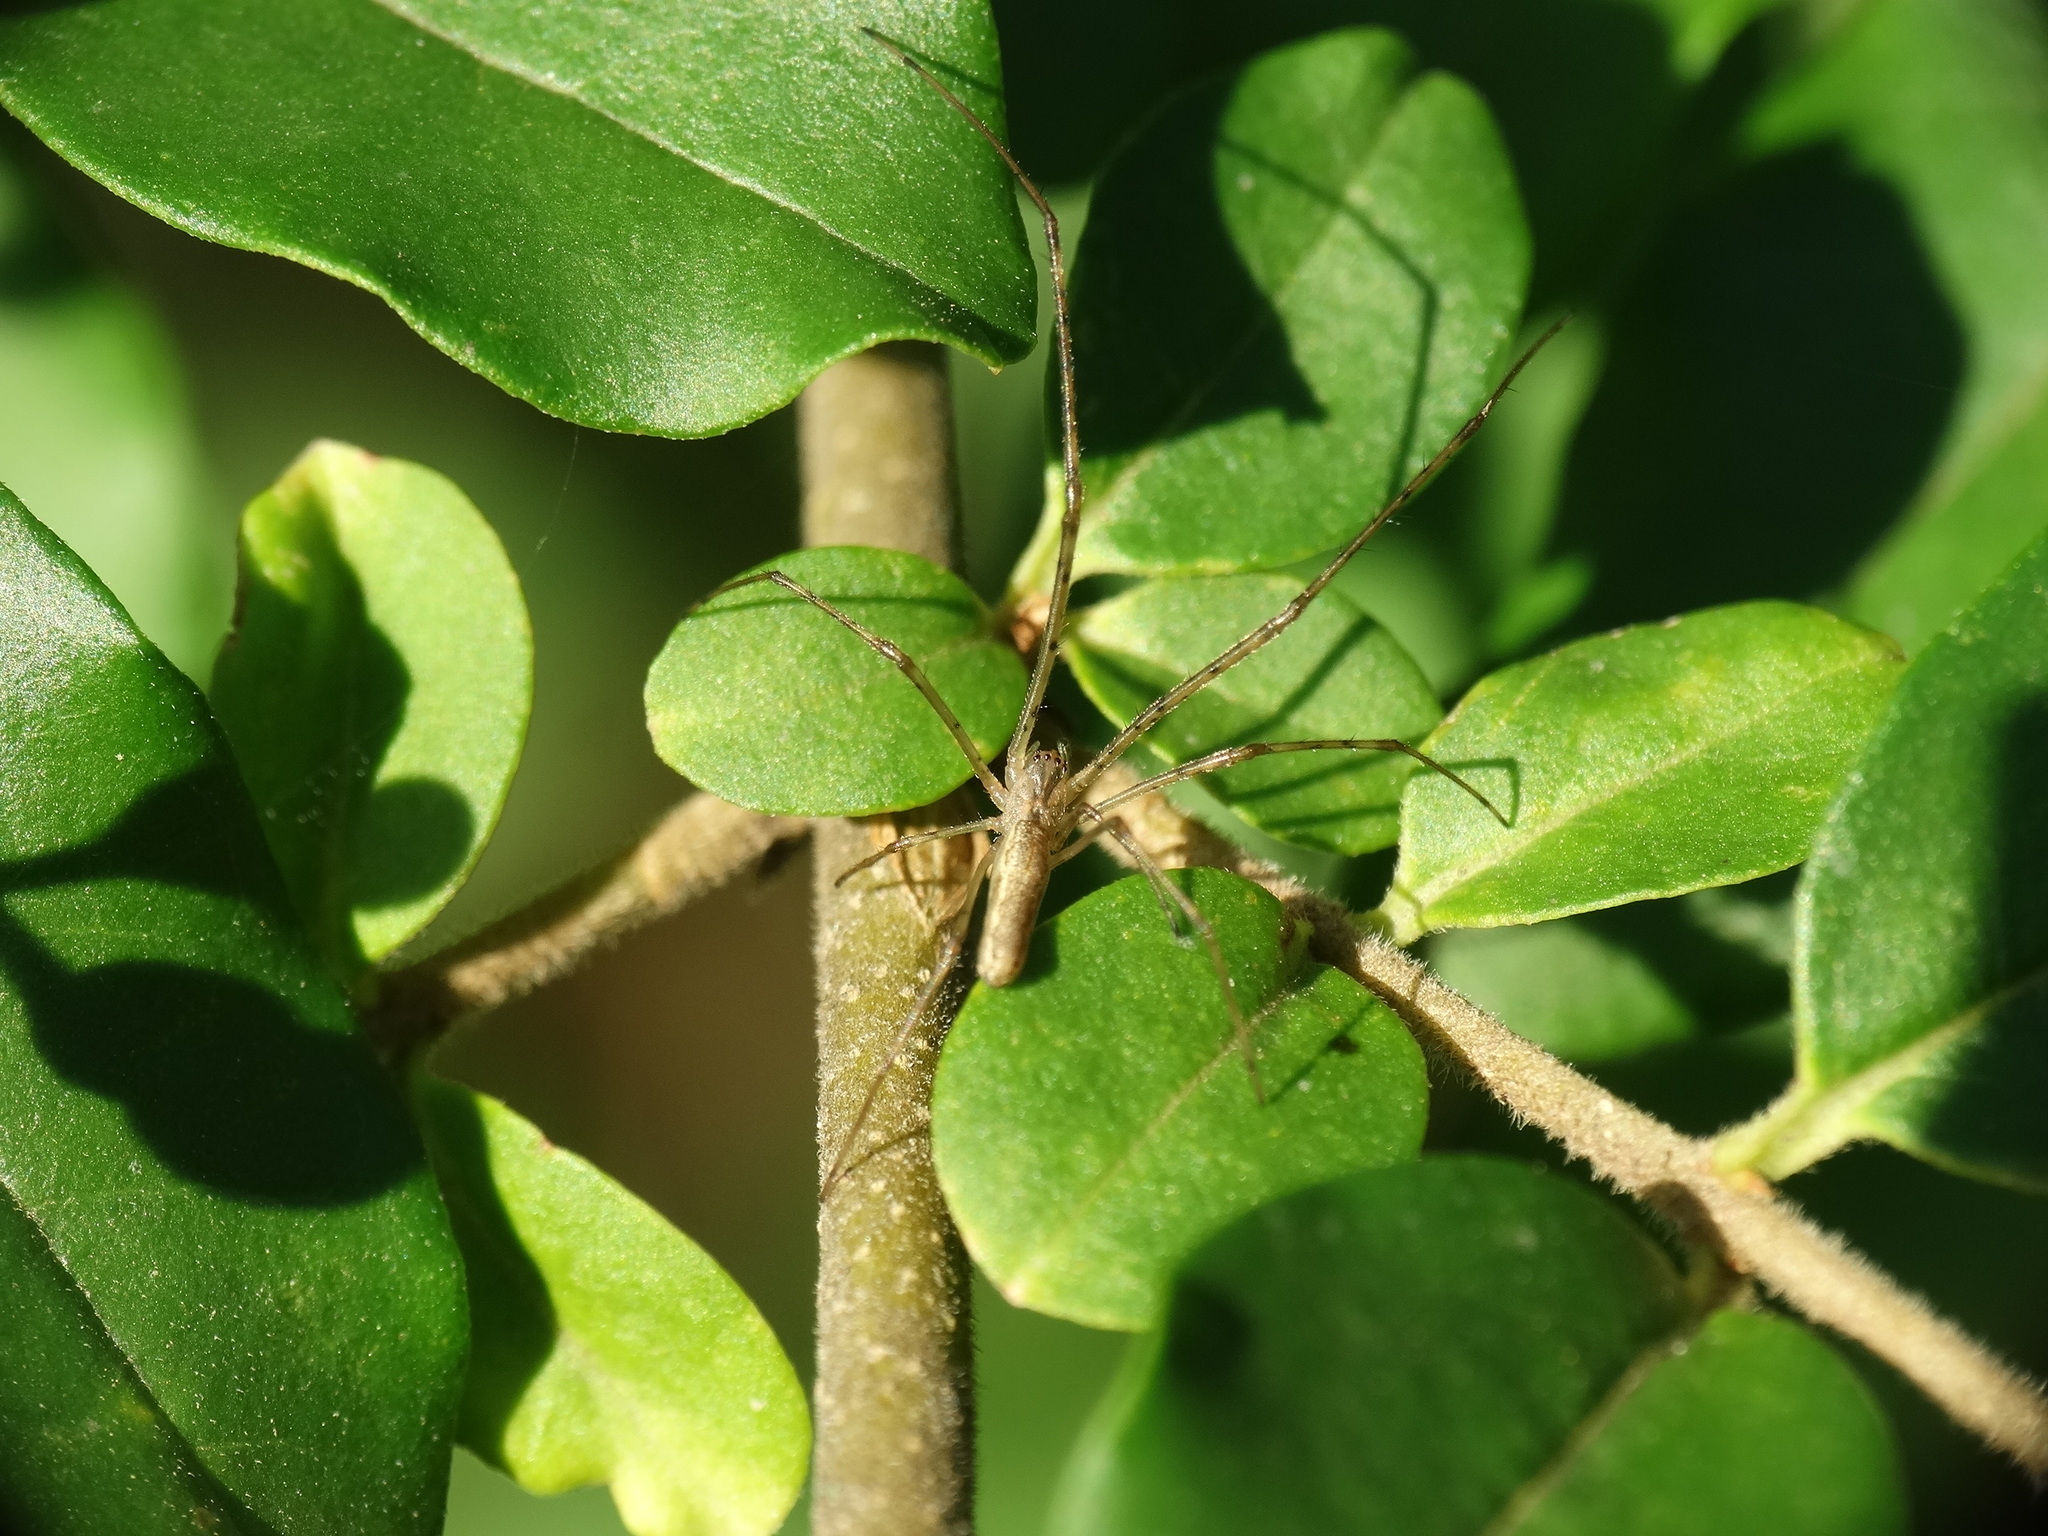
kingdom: Animalia
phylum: Arthropoda
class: Arachnida
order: Araneae
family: Tetragnathidae
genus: Tetragnatha
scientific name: Tetragnatha
